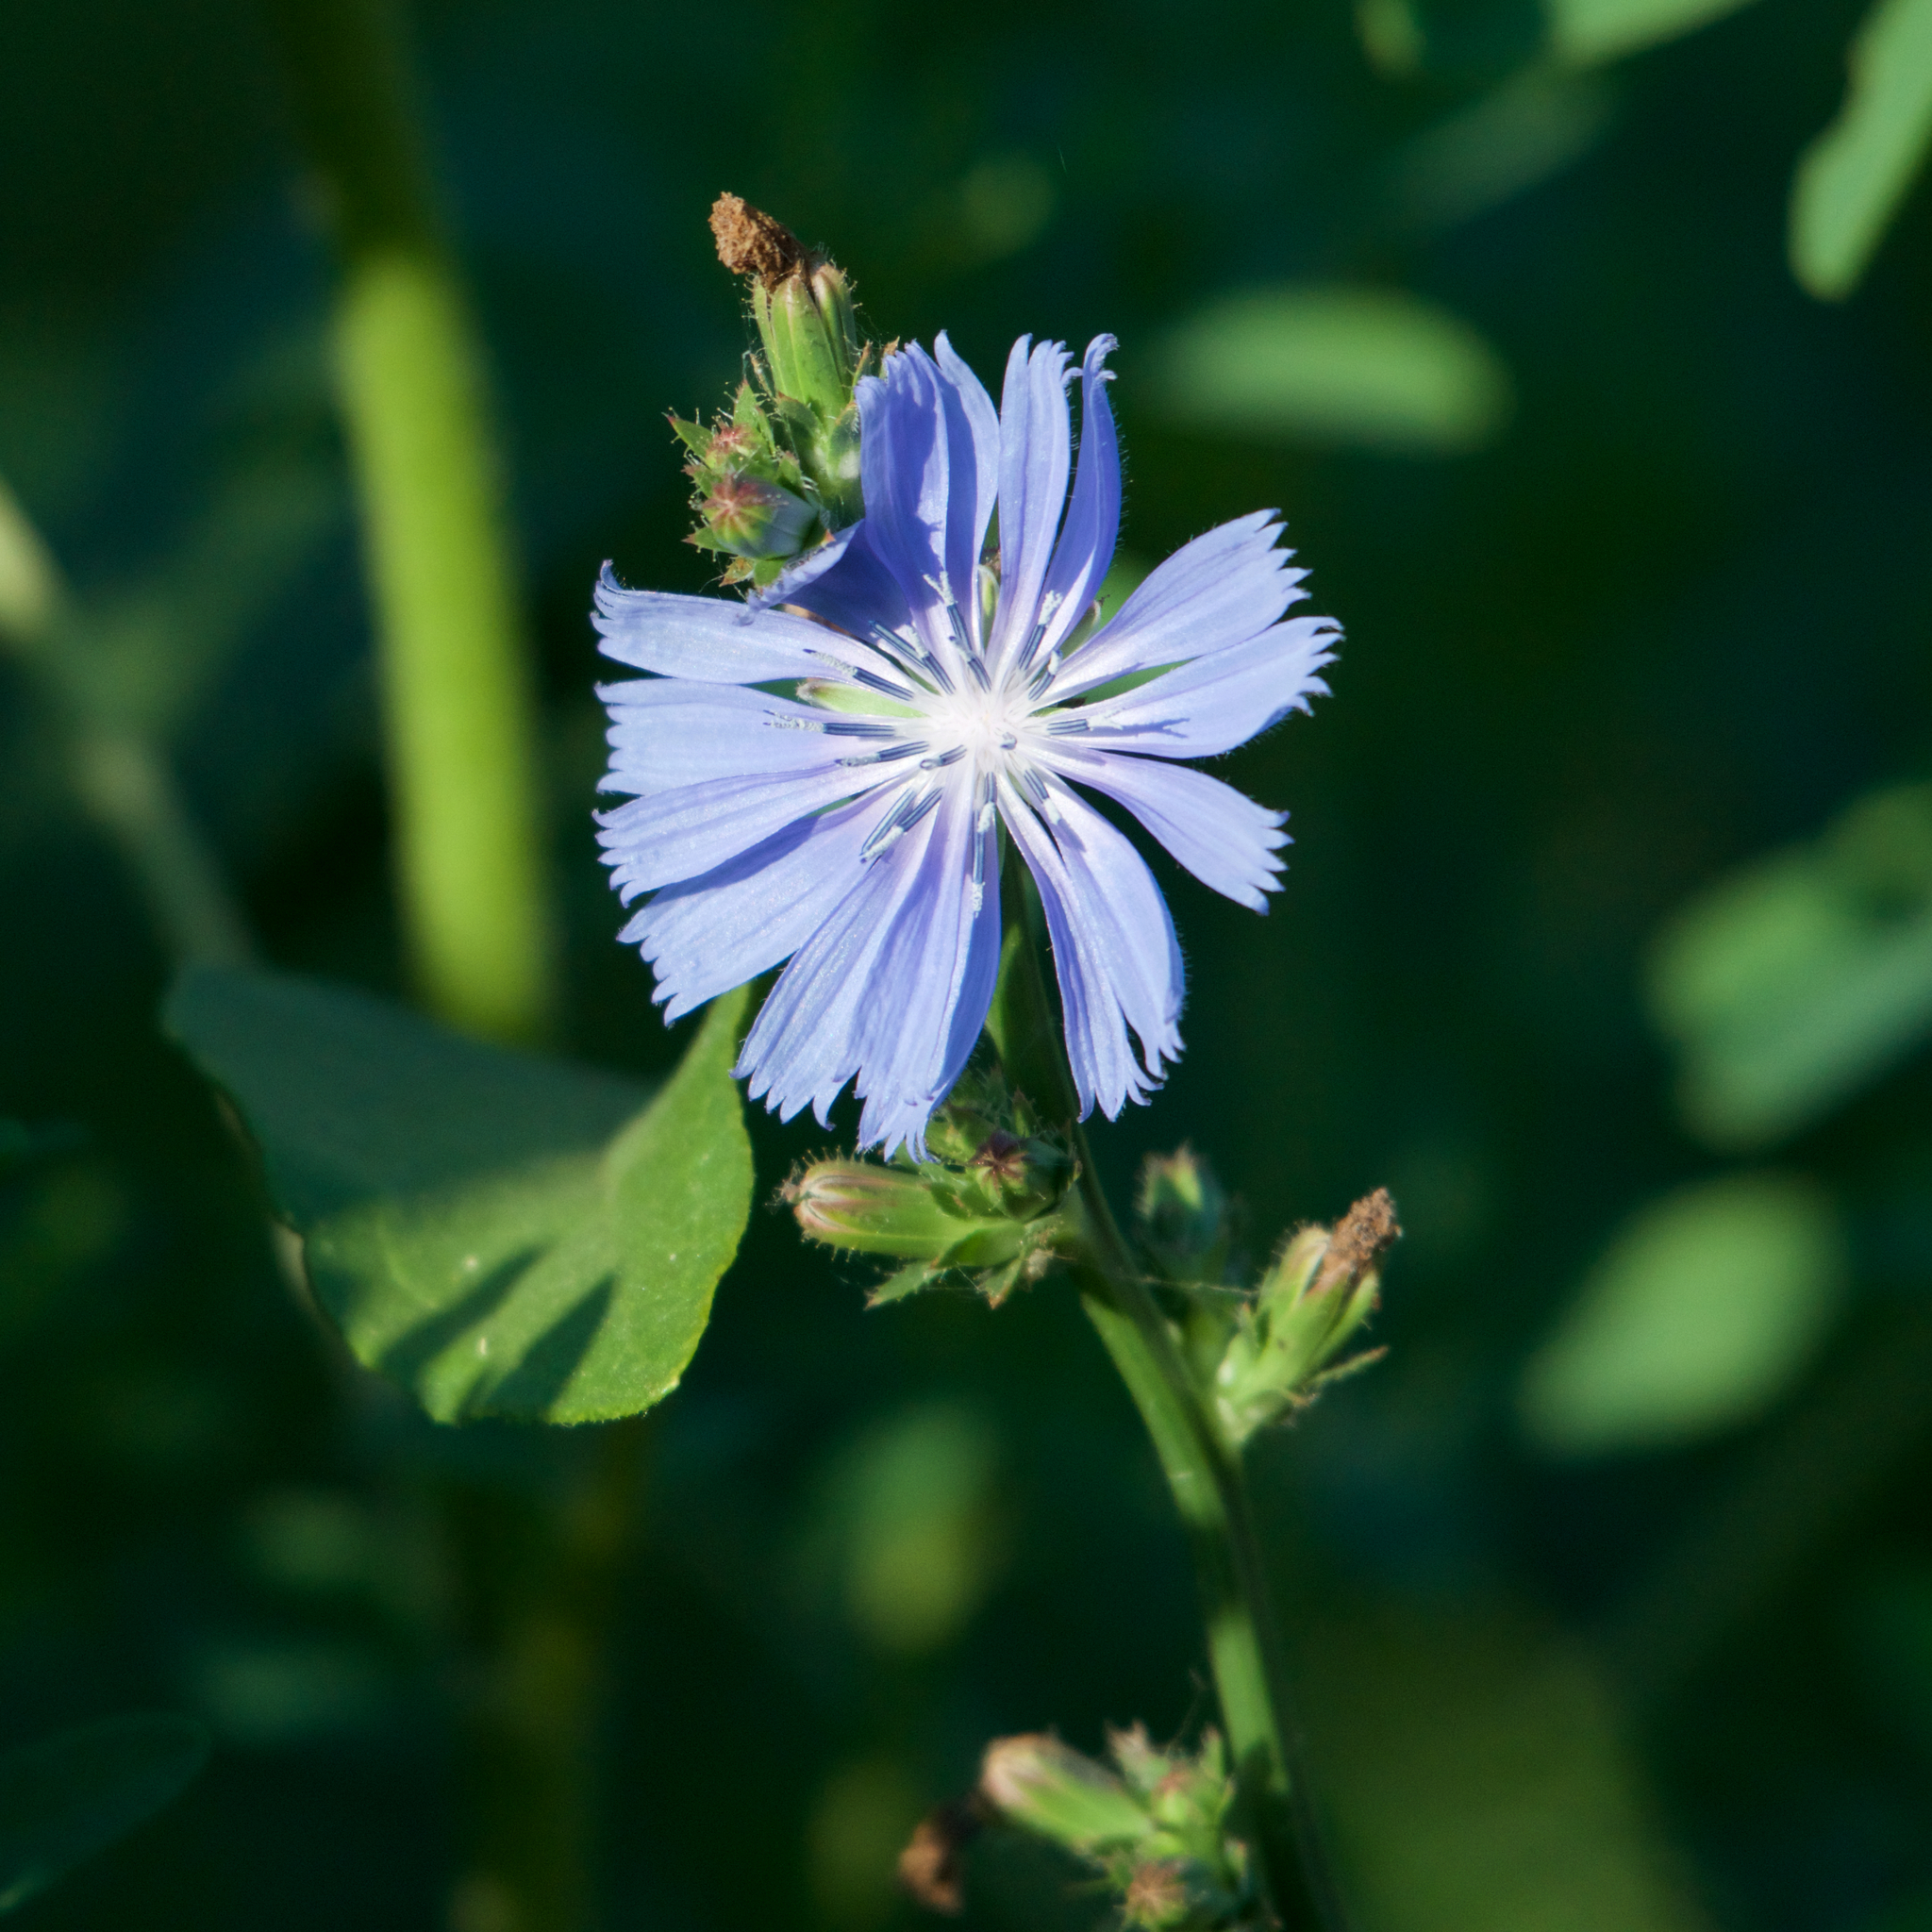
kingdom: Plantae
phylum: Tracheophyta
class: Magnoliopsida
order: Asterales
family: Asteraceae
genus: Cichorium
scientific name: Cichorium intybus
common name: Chicory
